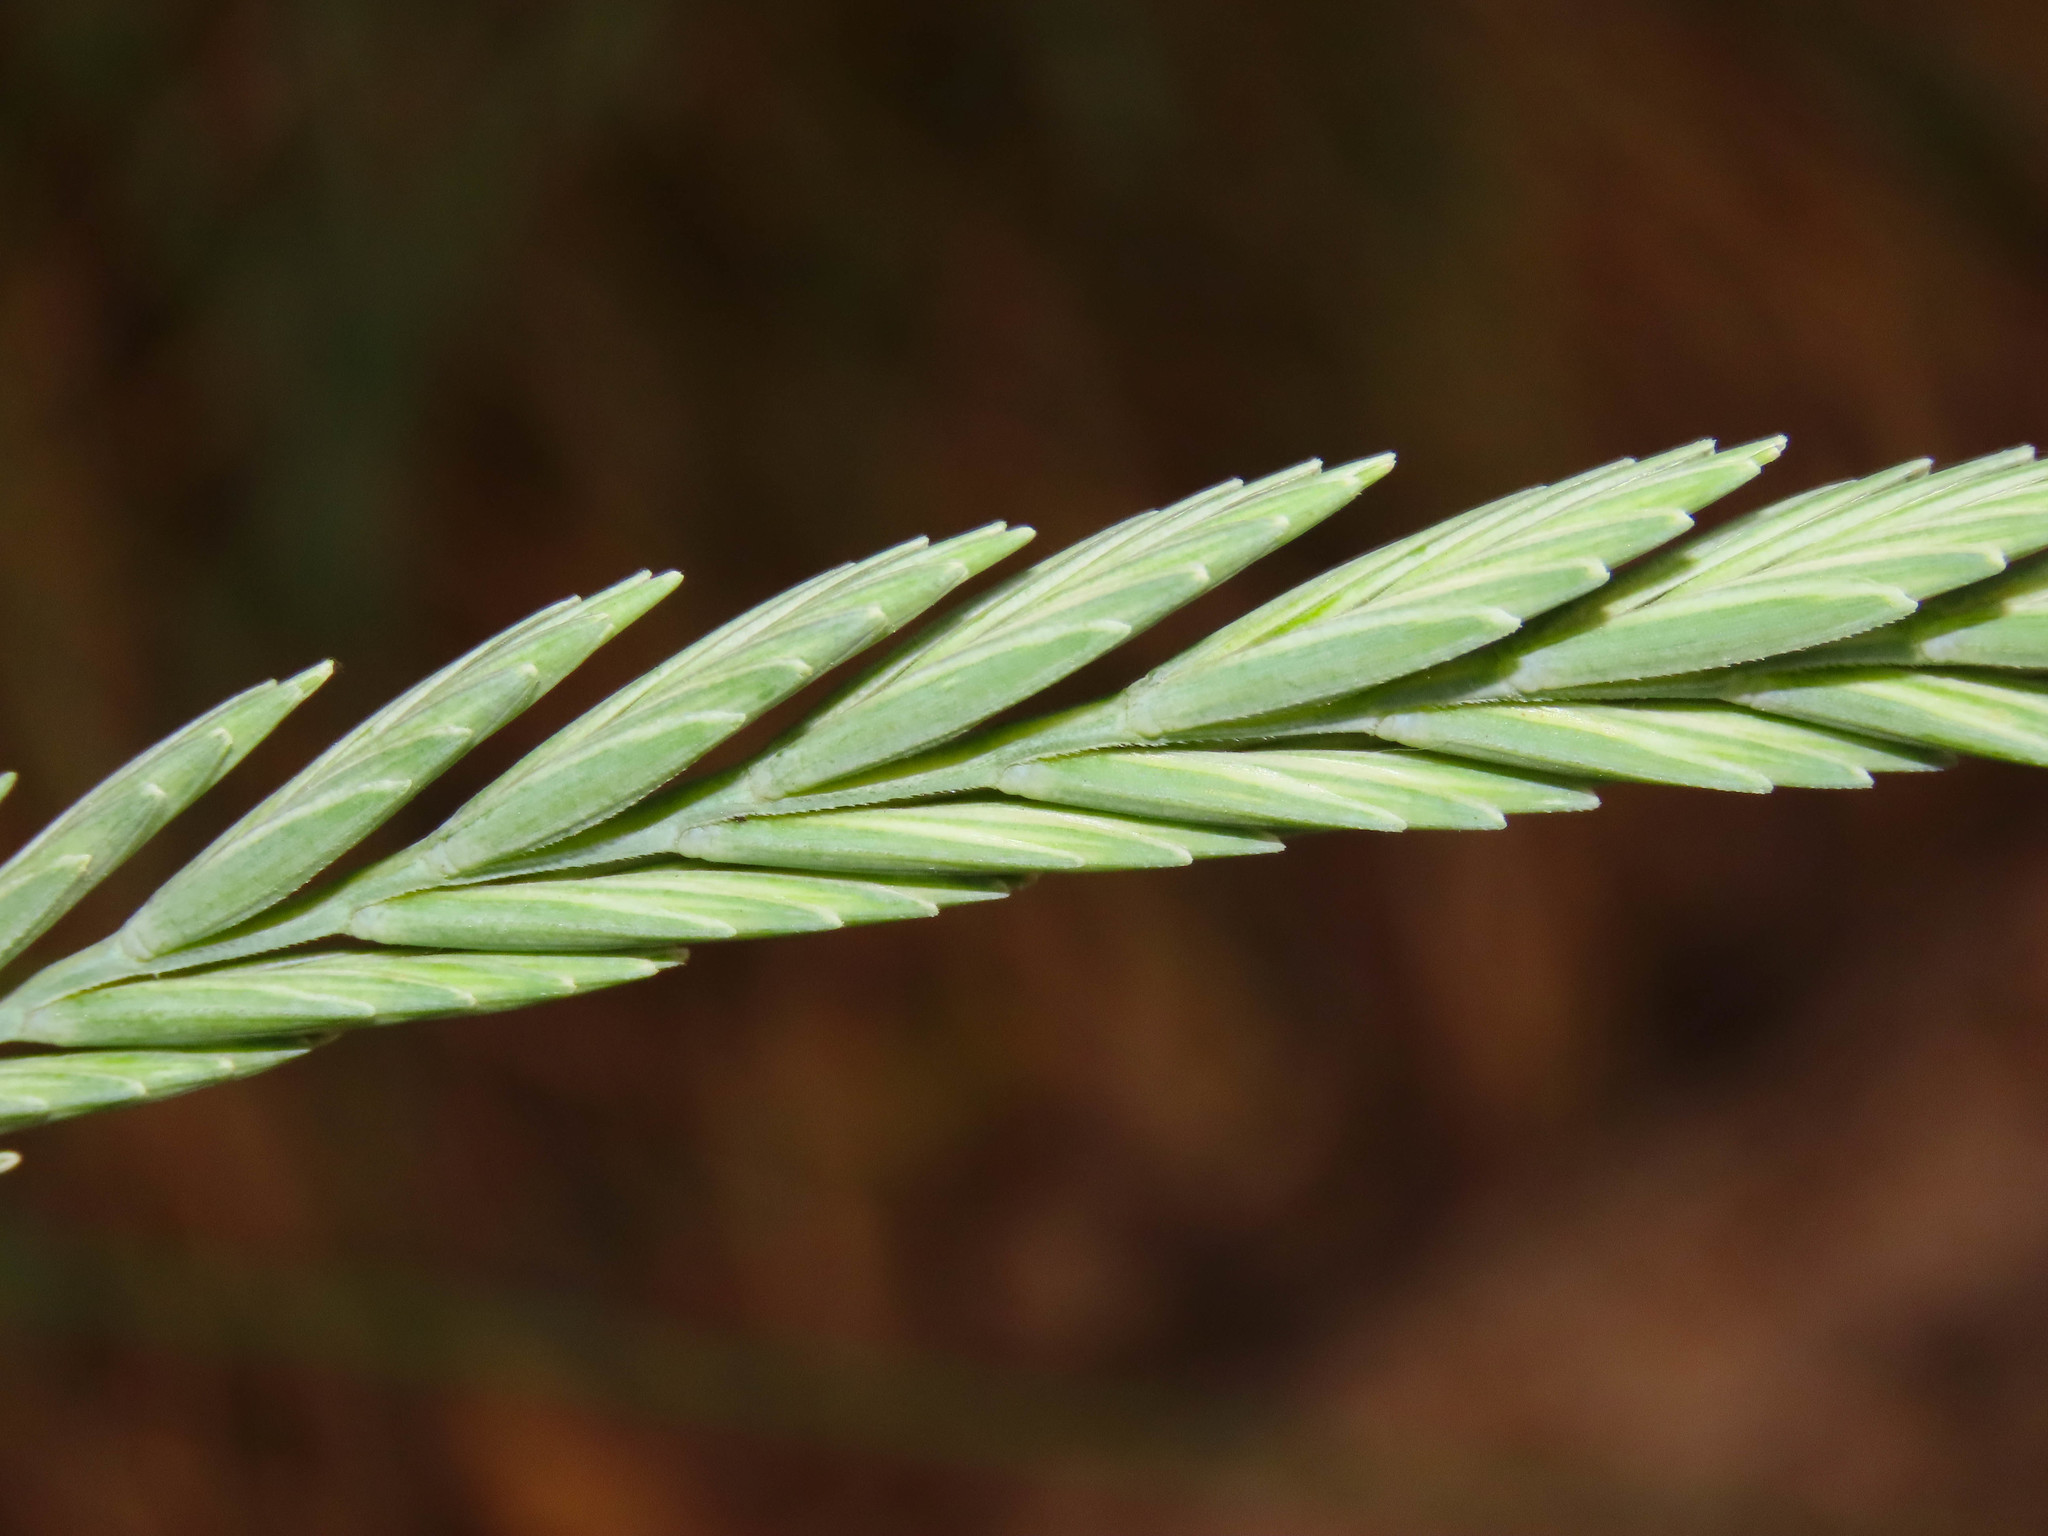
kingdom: Plantae
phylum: Tracheophyta
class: Liliopsida
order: Poales
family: Poaceae
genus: Elymus
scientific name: Elymus athericus
